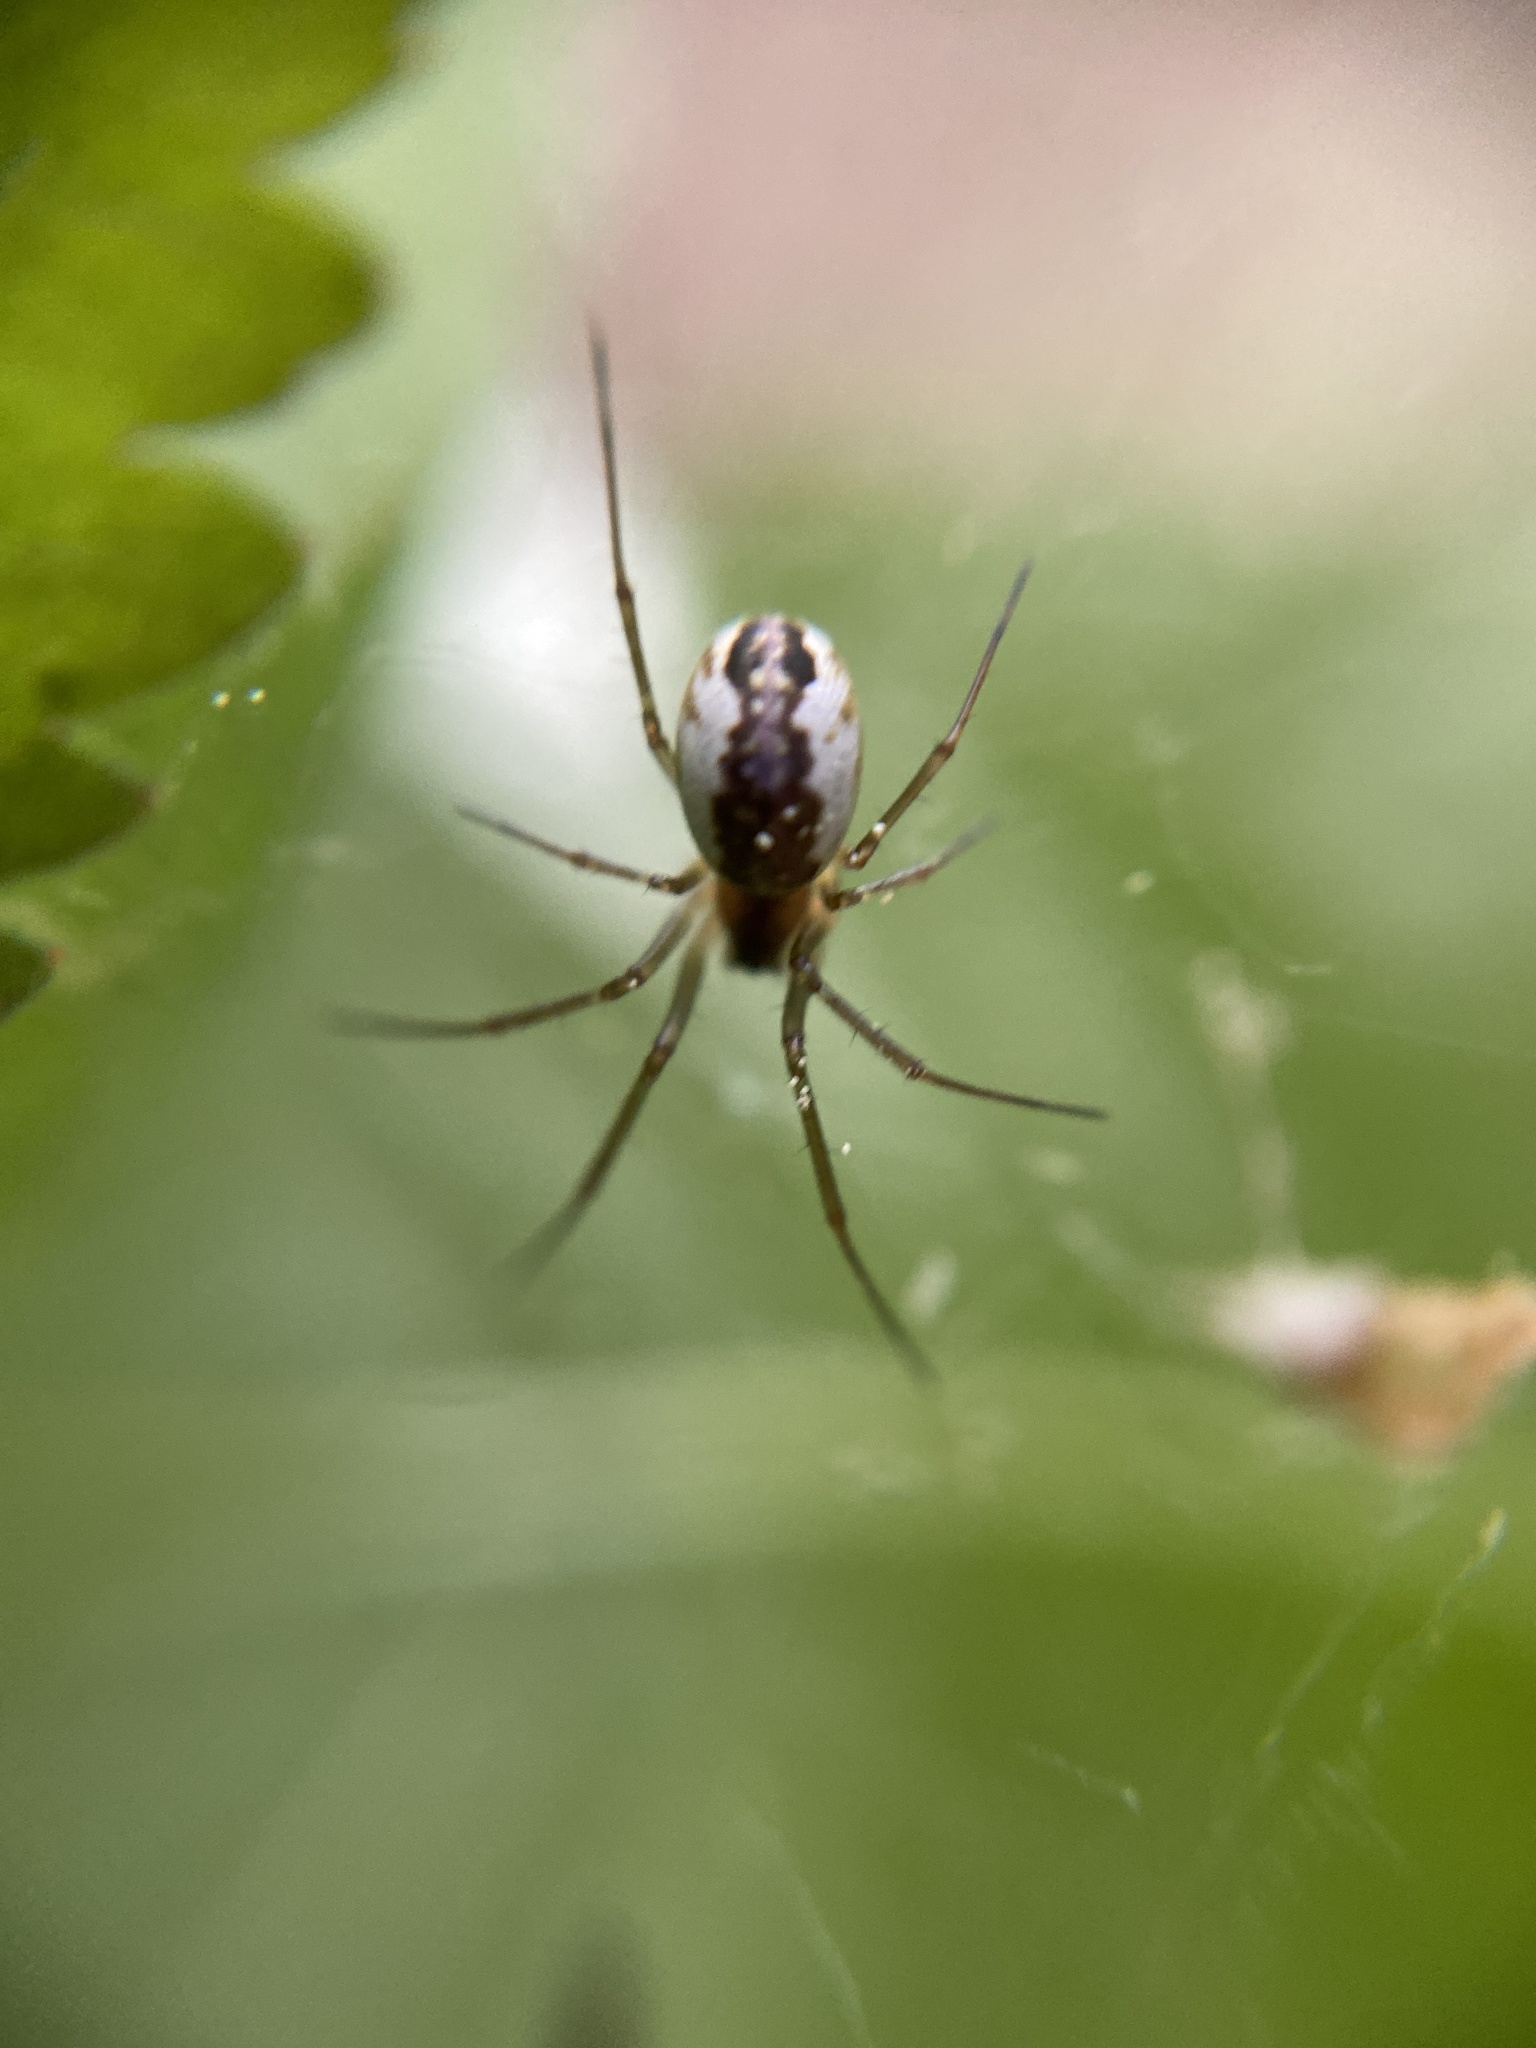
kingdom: Animalia
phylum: Arthropoda
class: Arachnida
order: Araneae
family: Linyphiidae
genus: Neriene
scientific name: Neriene peltata
